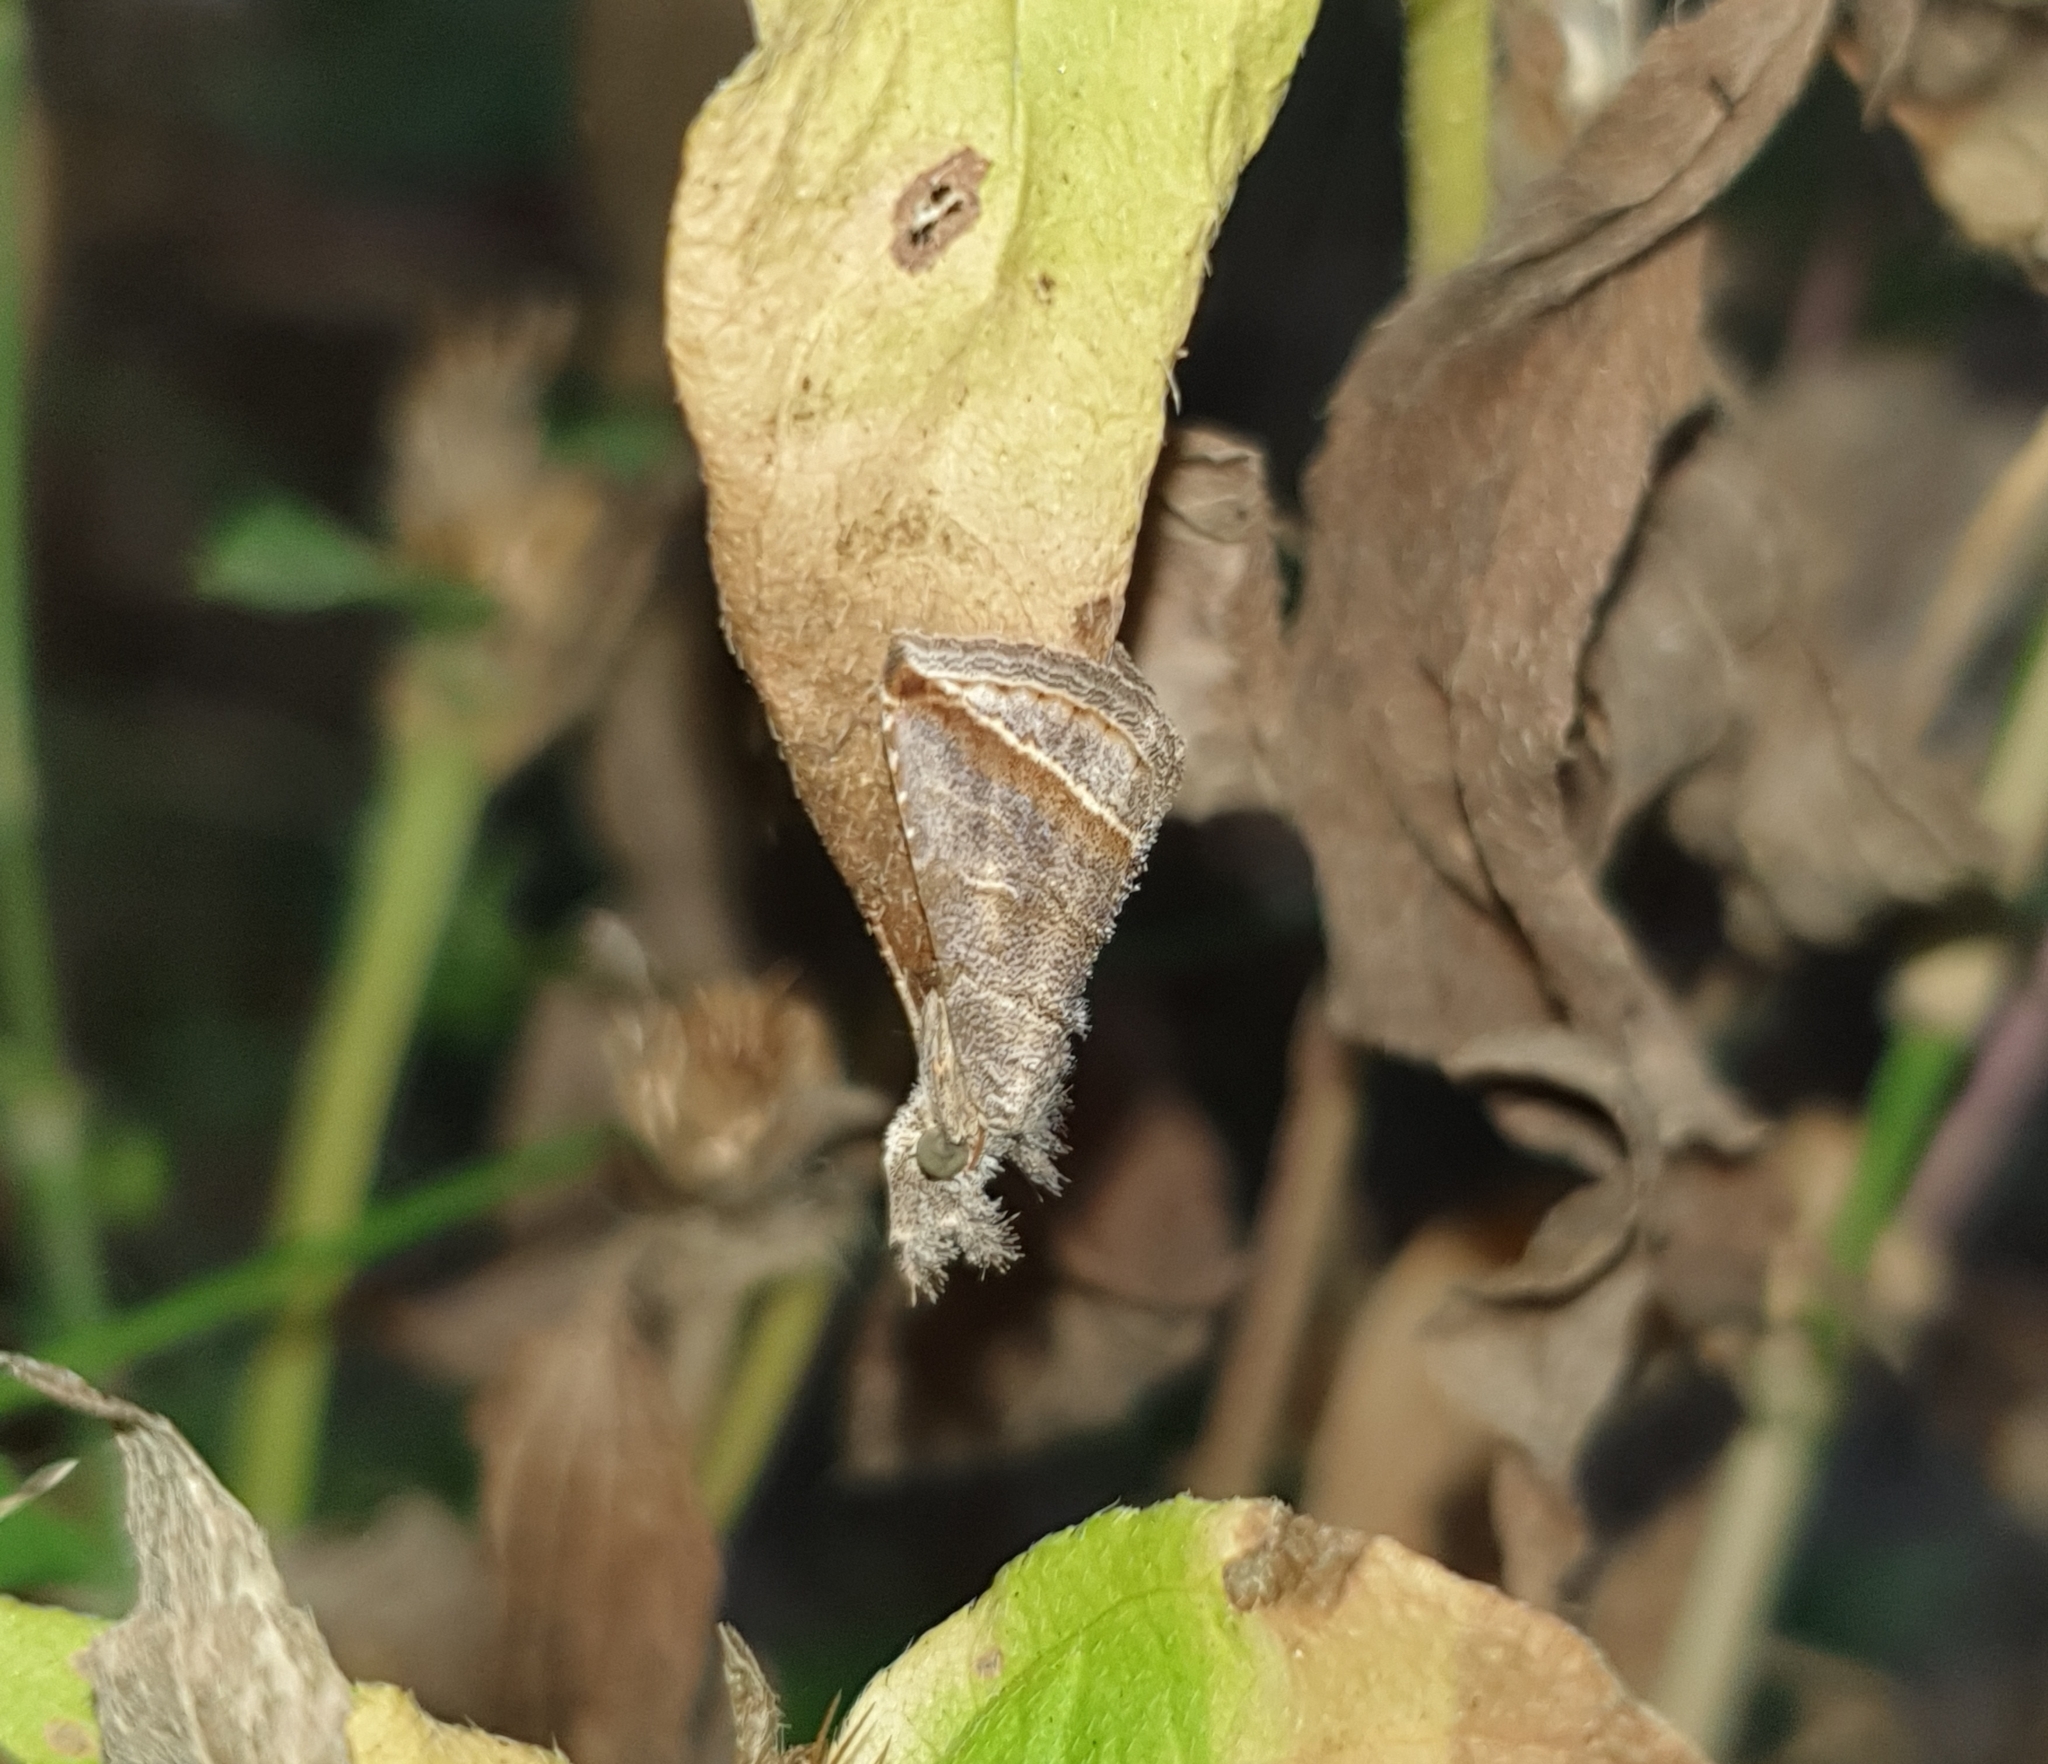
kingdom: Animalia
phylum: Arthropoda
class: Insecta
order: Lepidoptera
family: Erebidae
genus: Britha
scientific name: Britha biguttata
